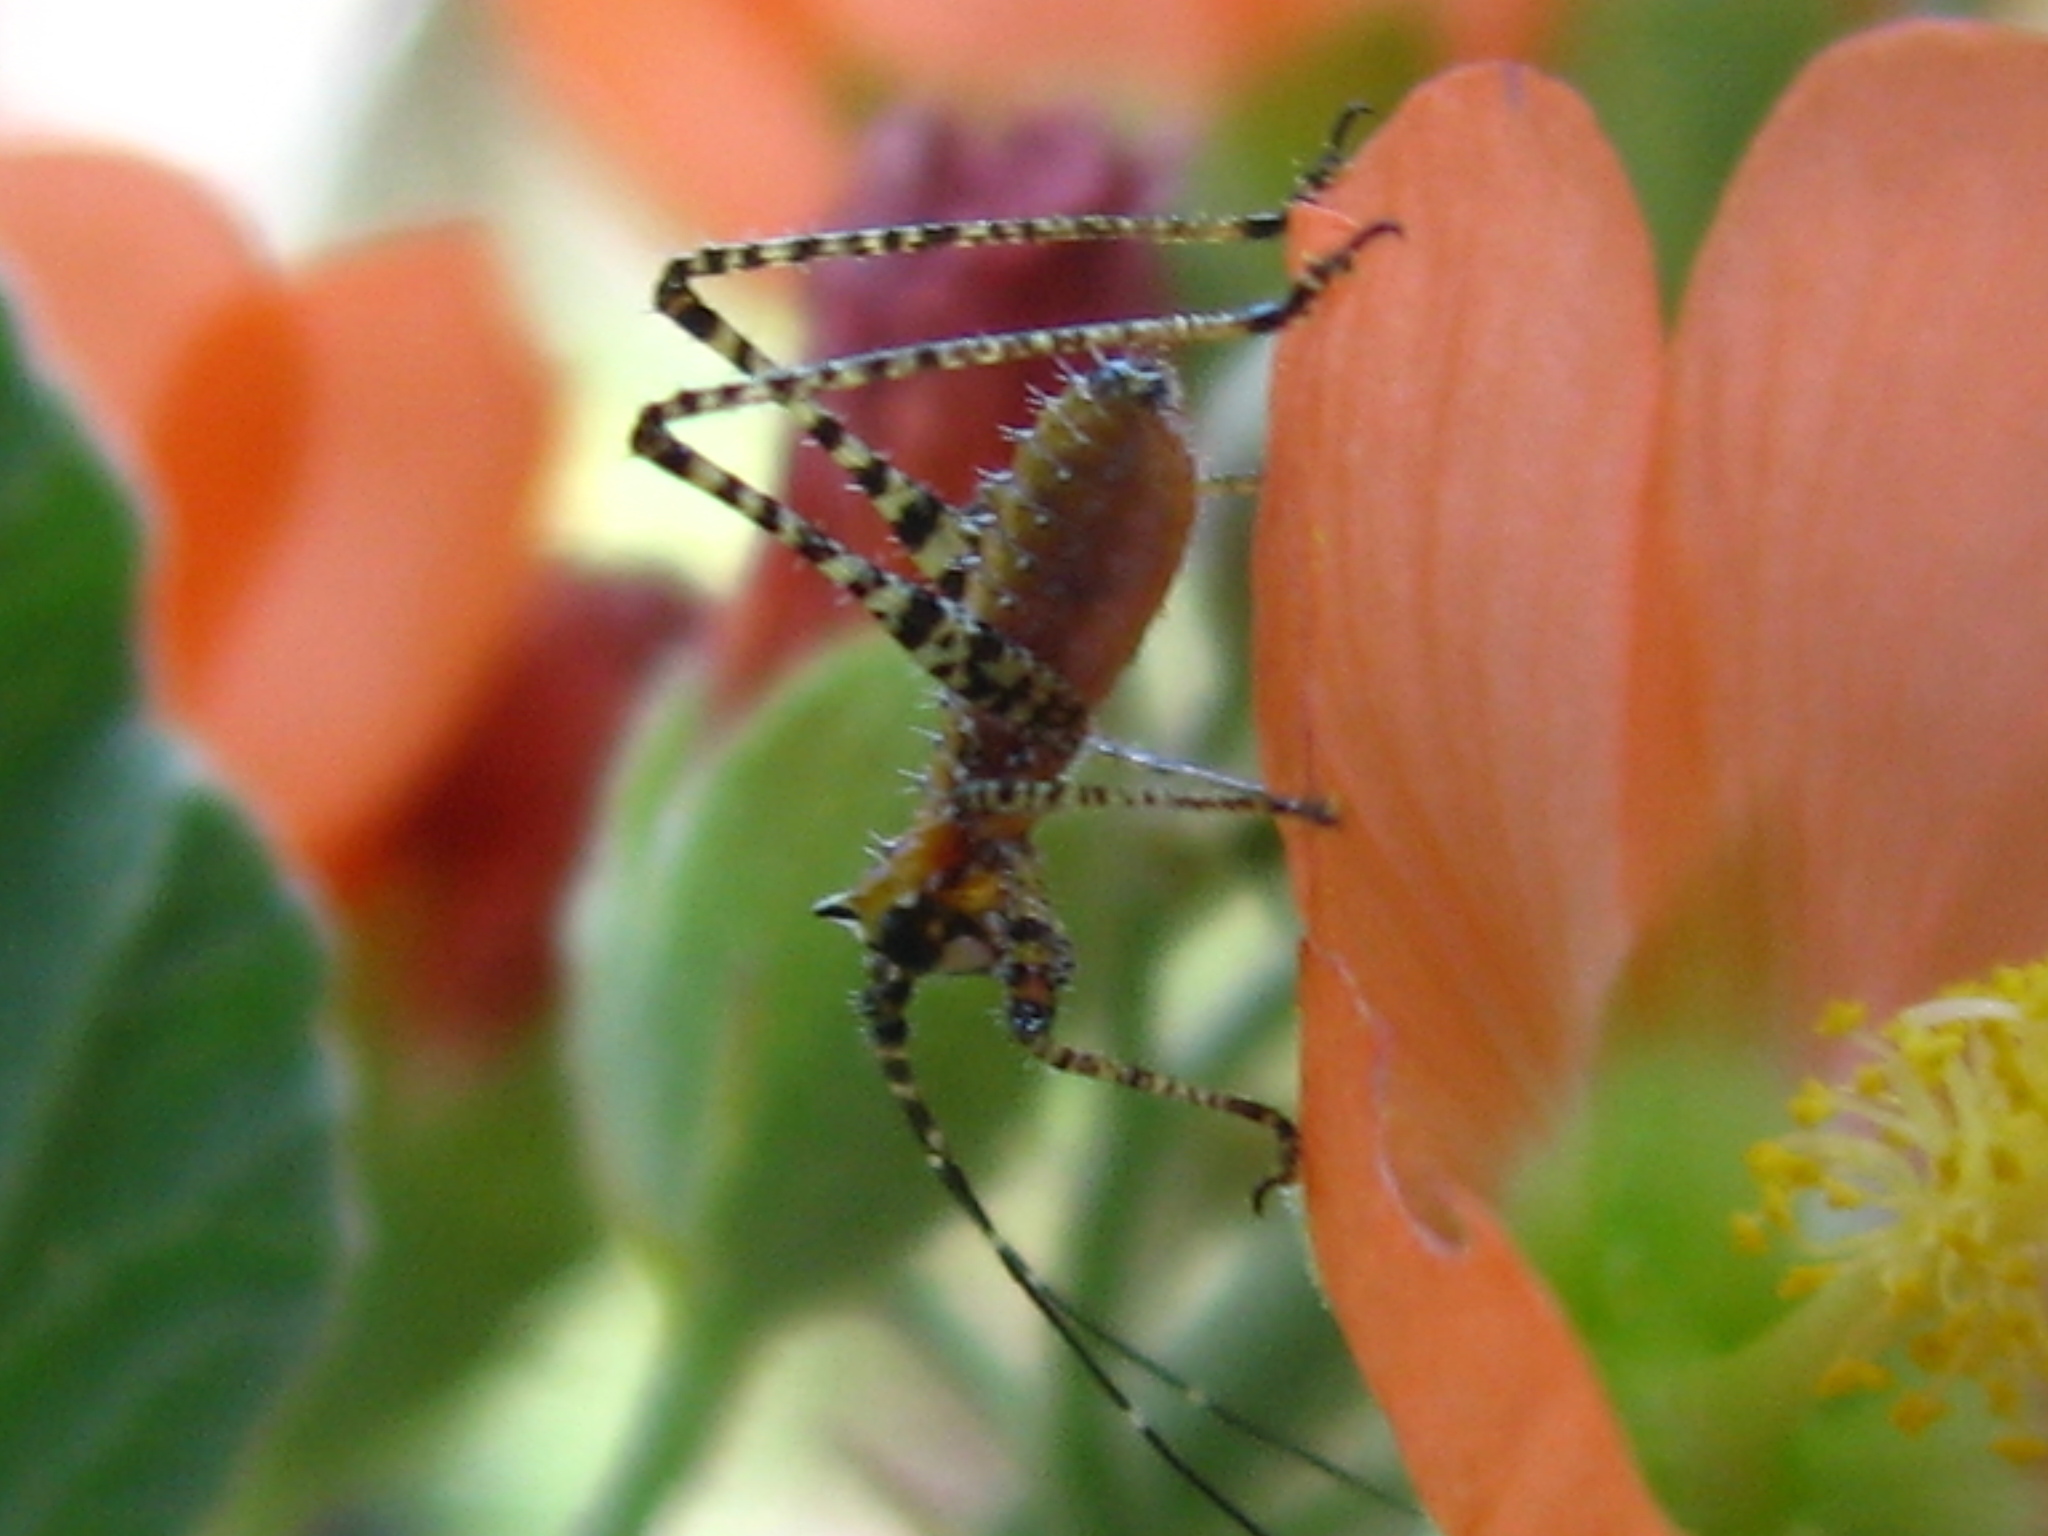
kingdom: Animalia
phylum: Arthropoda
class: Insecta
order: Orthoptera
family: Tettigoniidae
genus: Scudderia
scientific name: Scudderia mexicana
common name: Mexican bush katydid
